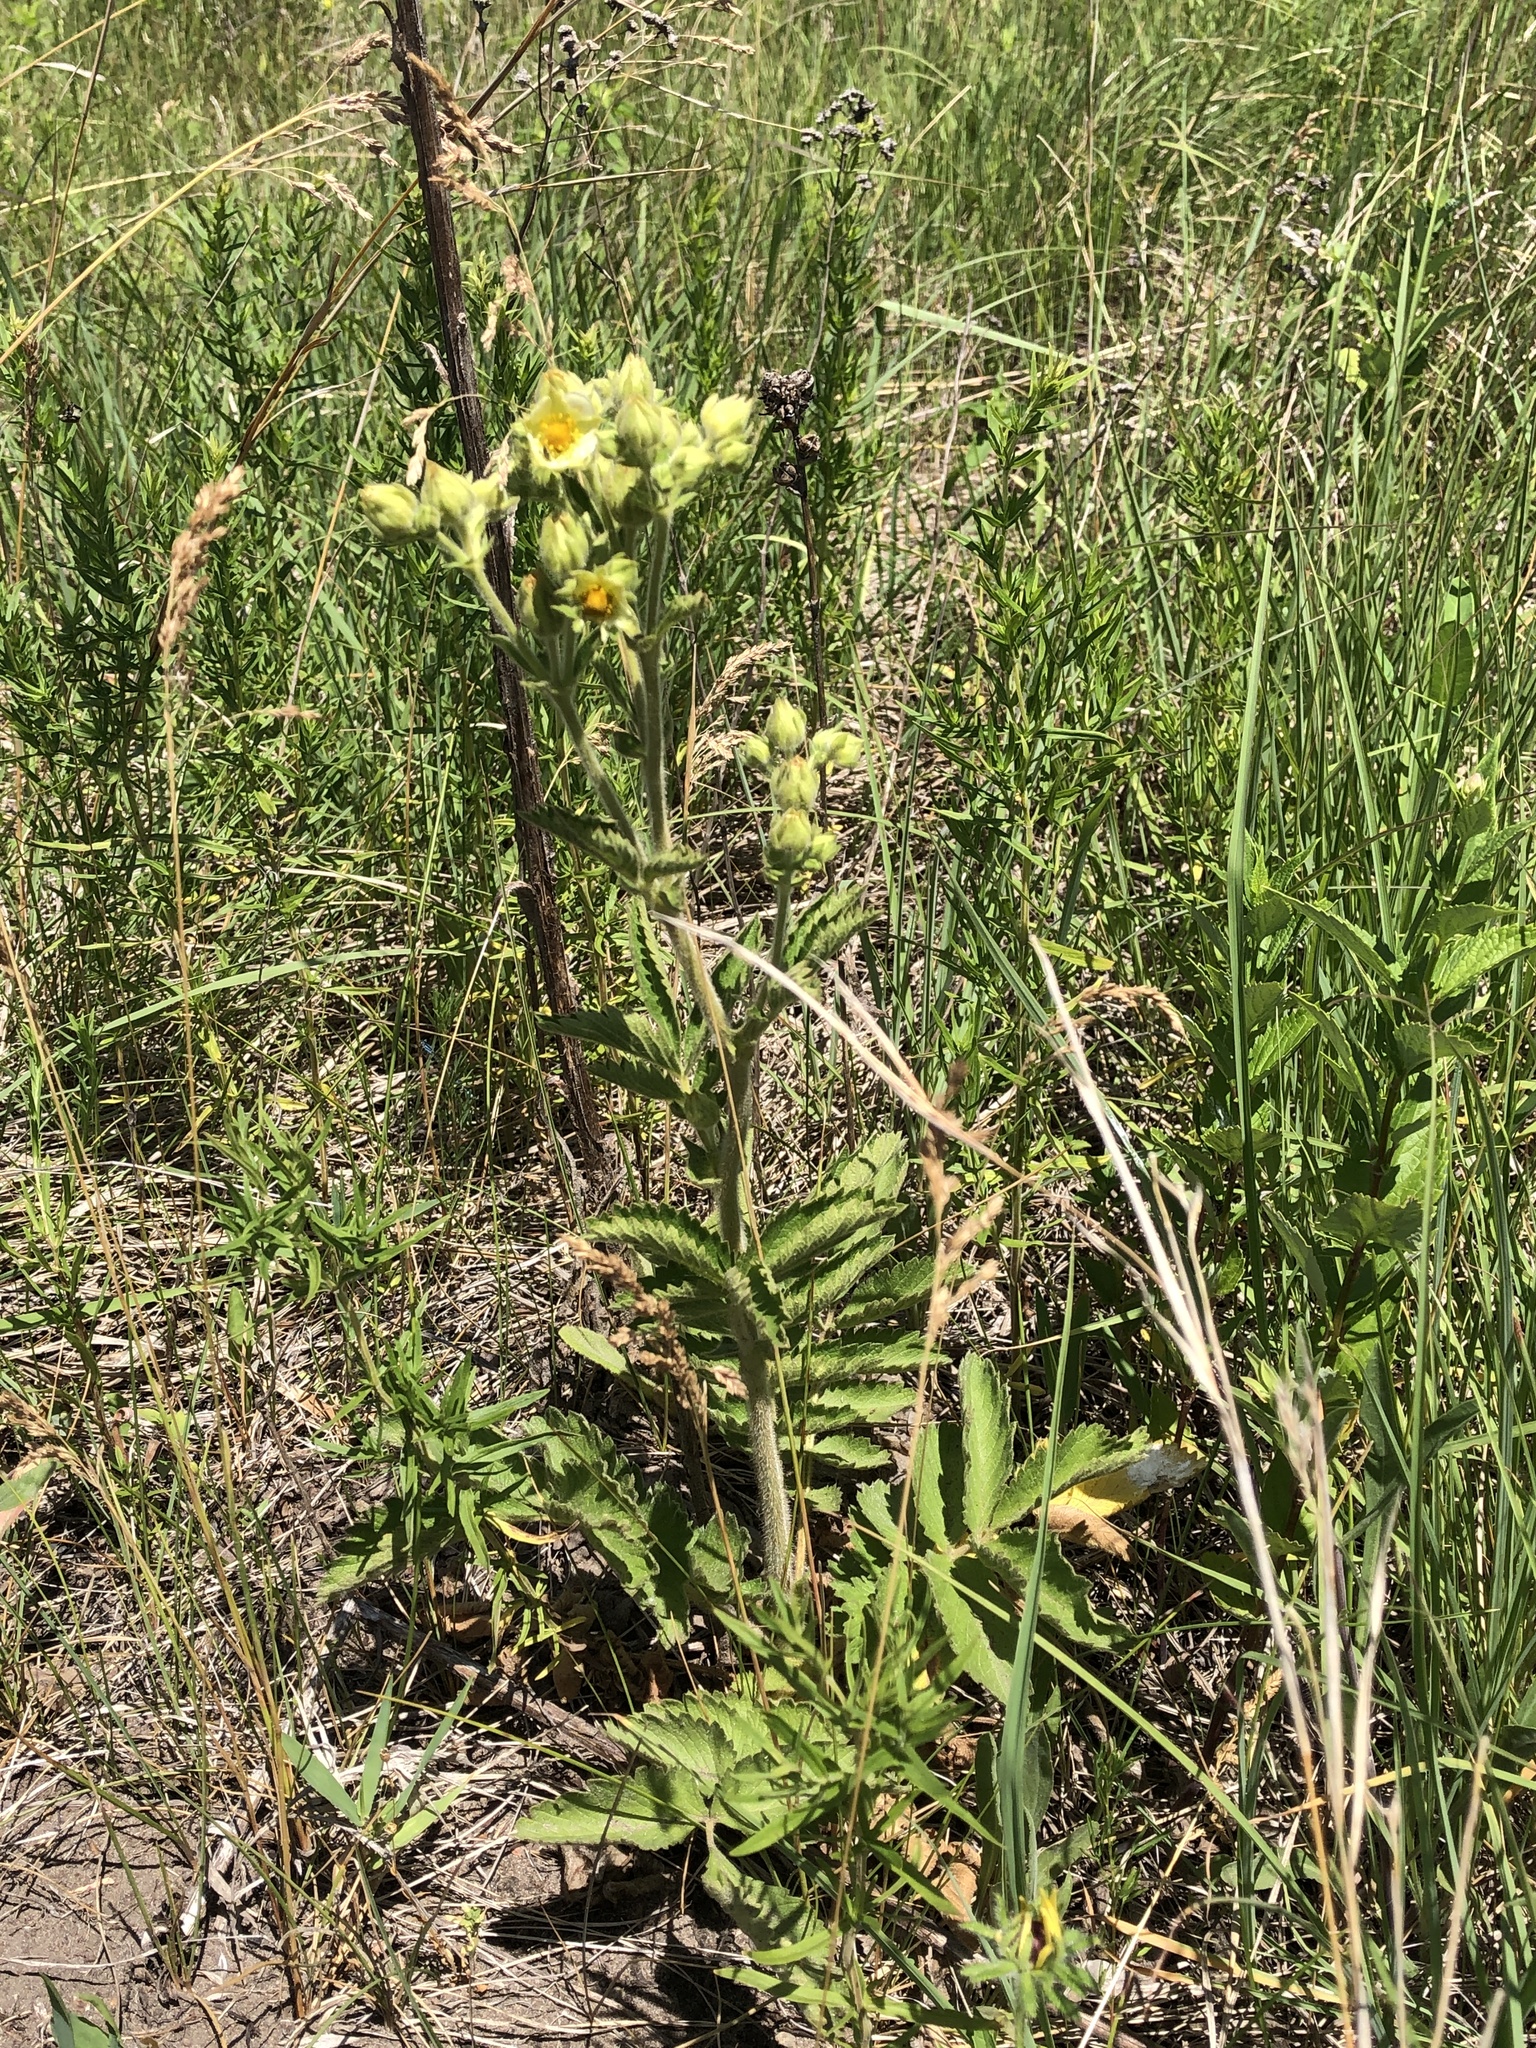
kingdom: Plantae
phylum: Tracheophyta
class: Magnoliopsida
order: Rosales
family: Rosaceae
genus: Drymocallis
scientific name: Drymocallis arguta
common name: Tall cinquefoil
